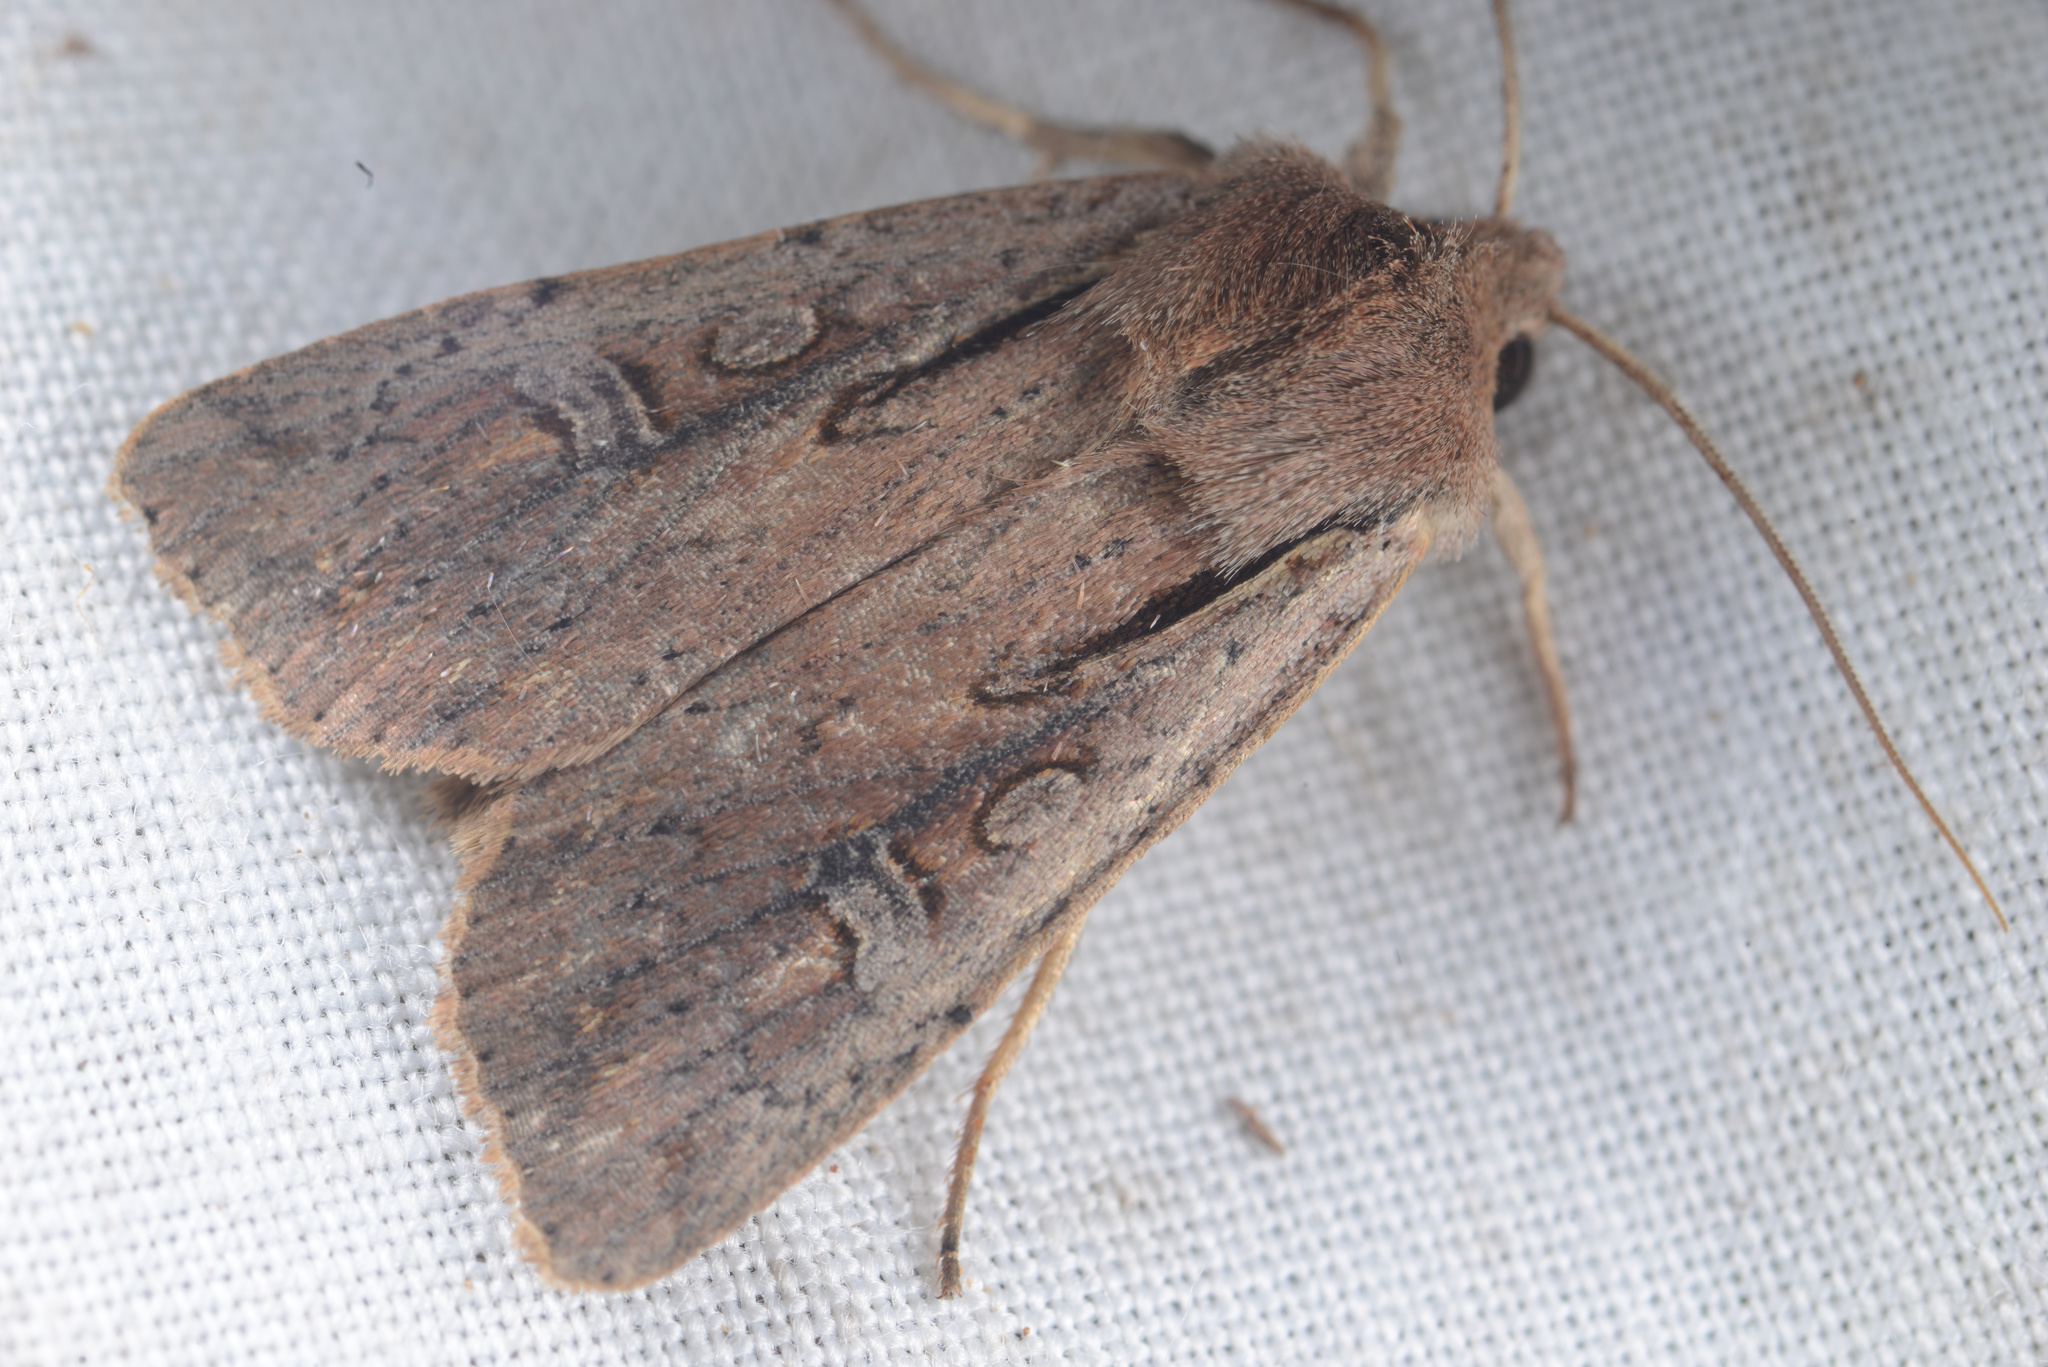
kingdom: Animalia
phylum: Arthropoda
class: Insecta
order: Lepidoptera
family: Noctuidae
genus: Ichneutica
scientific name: Ichneutica atristriga
